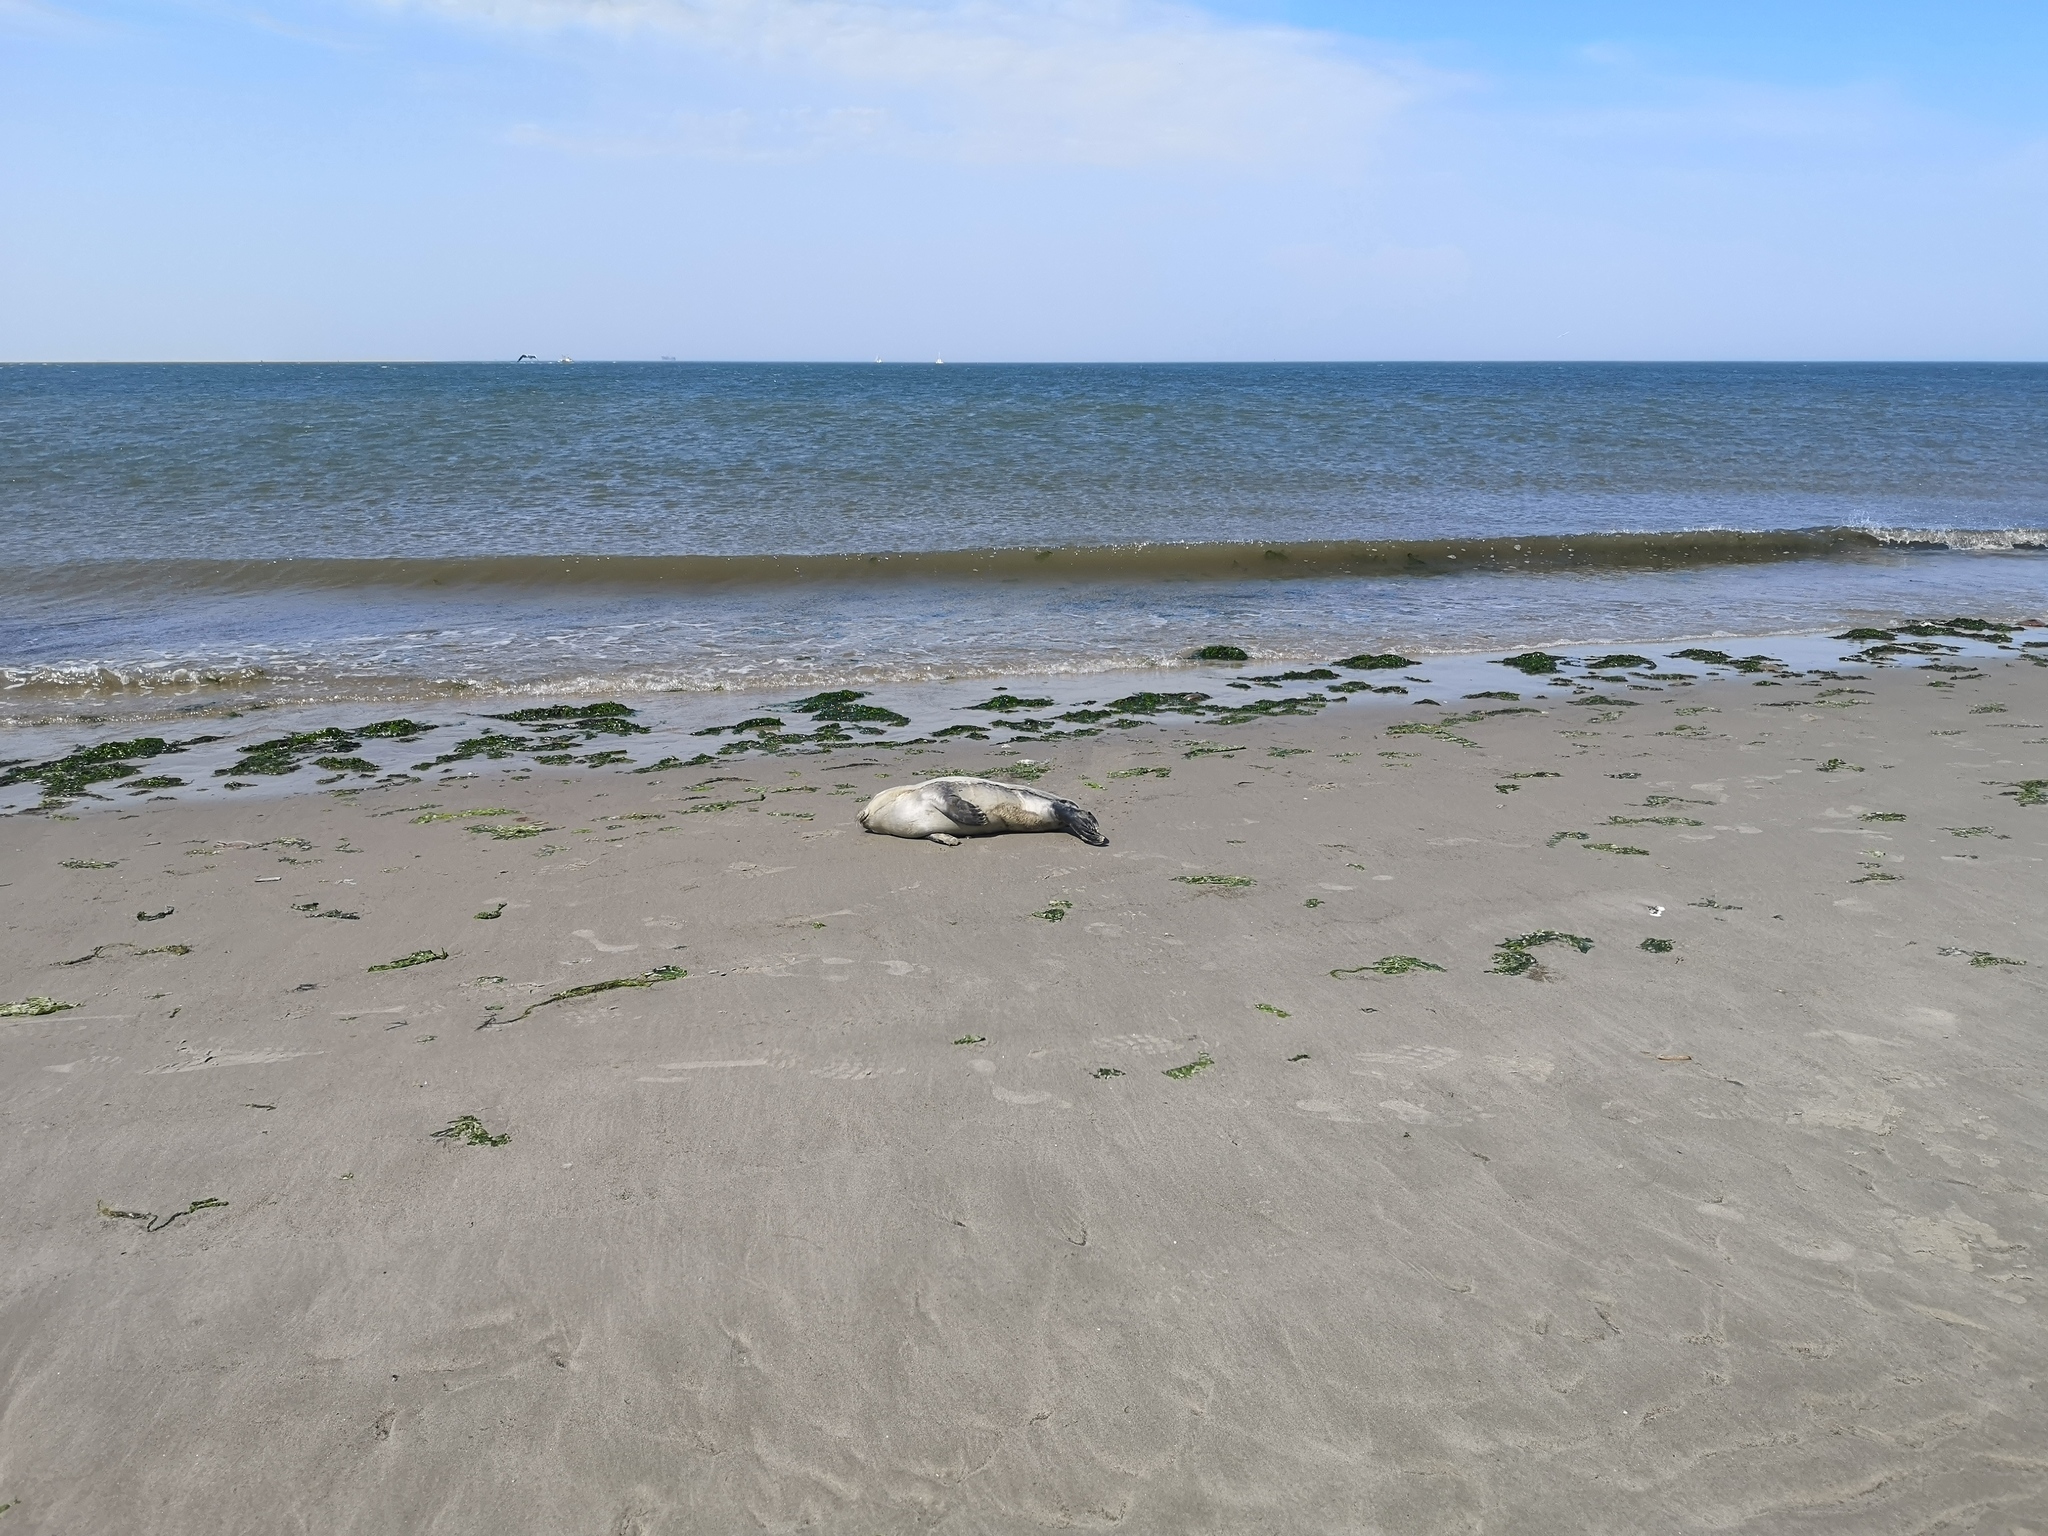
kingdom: Animalia
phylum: Chordata
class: Mammalia
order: Carnivora
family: Phocidae
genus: Phoca
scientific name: Phoca vitulina
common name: Harbor seal
